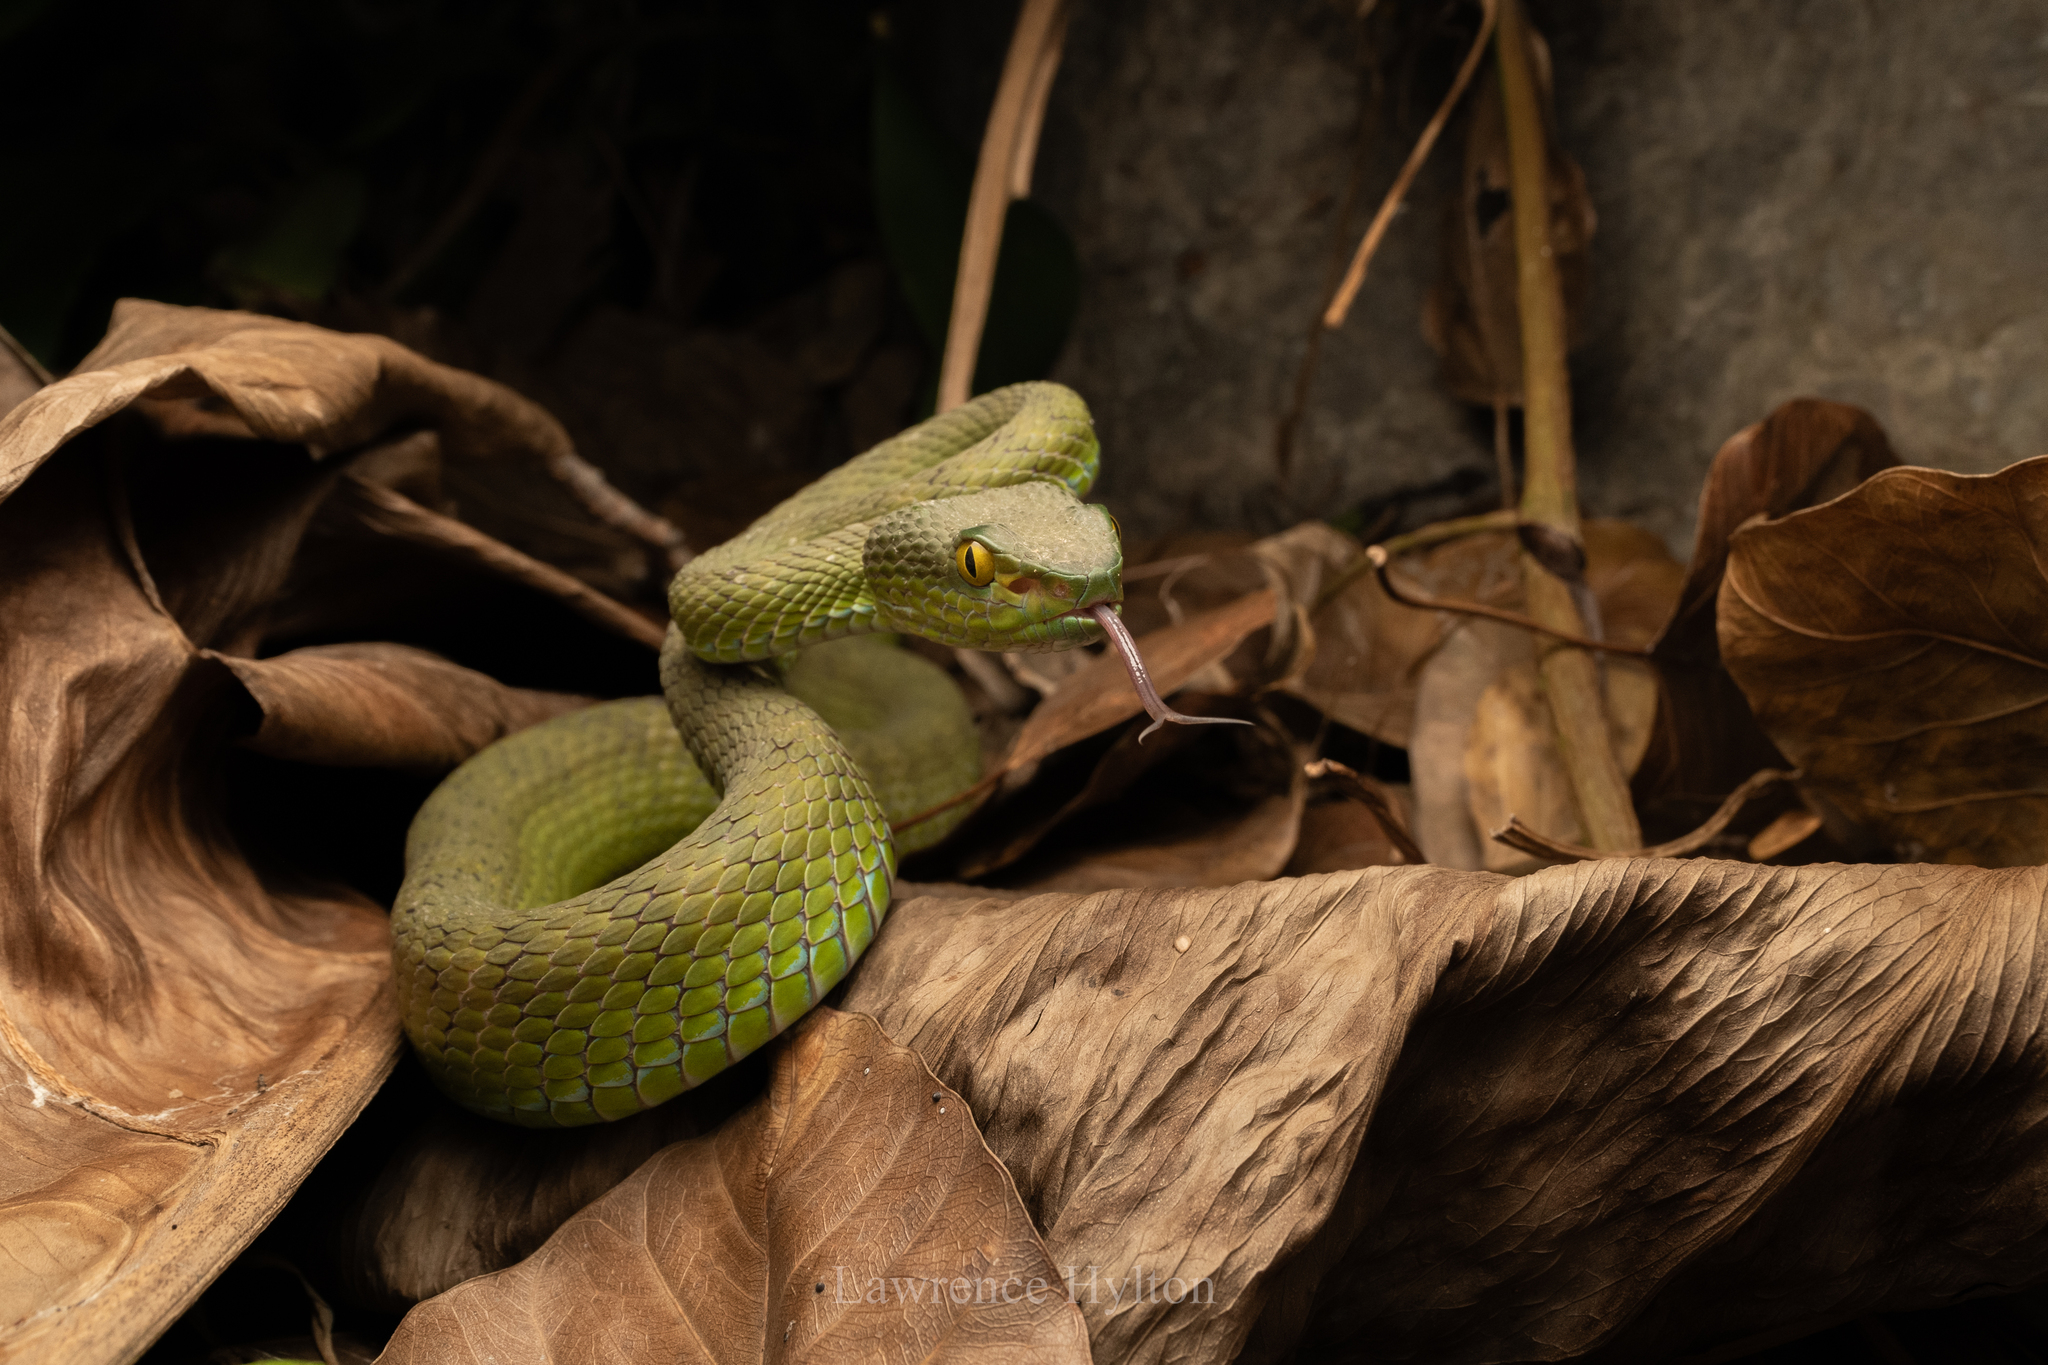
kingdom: Animalia
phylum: Chordata
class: Squamata
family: Viperidae
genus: Trimeresurus
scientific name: Trimeresurus macrops
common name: Kramer's pit viper
